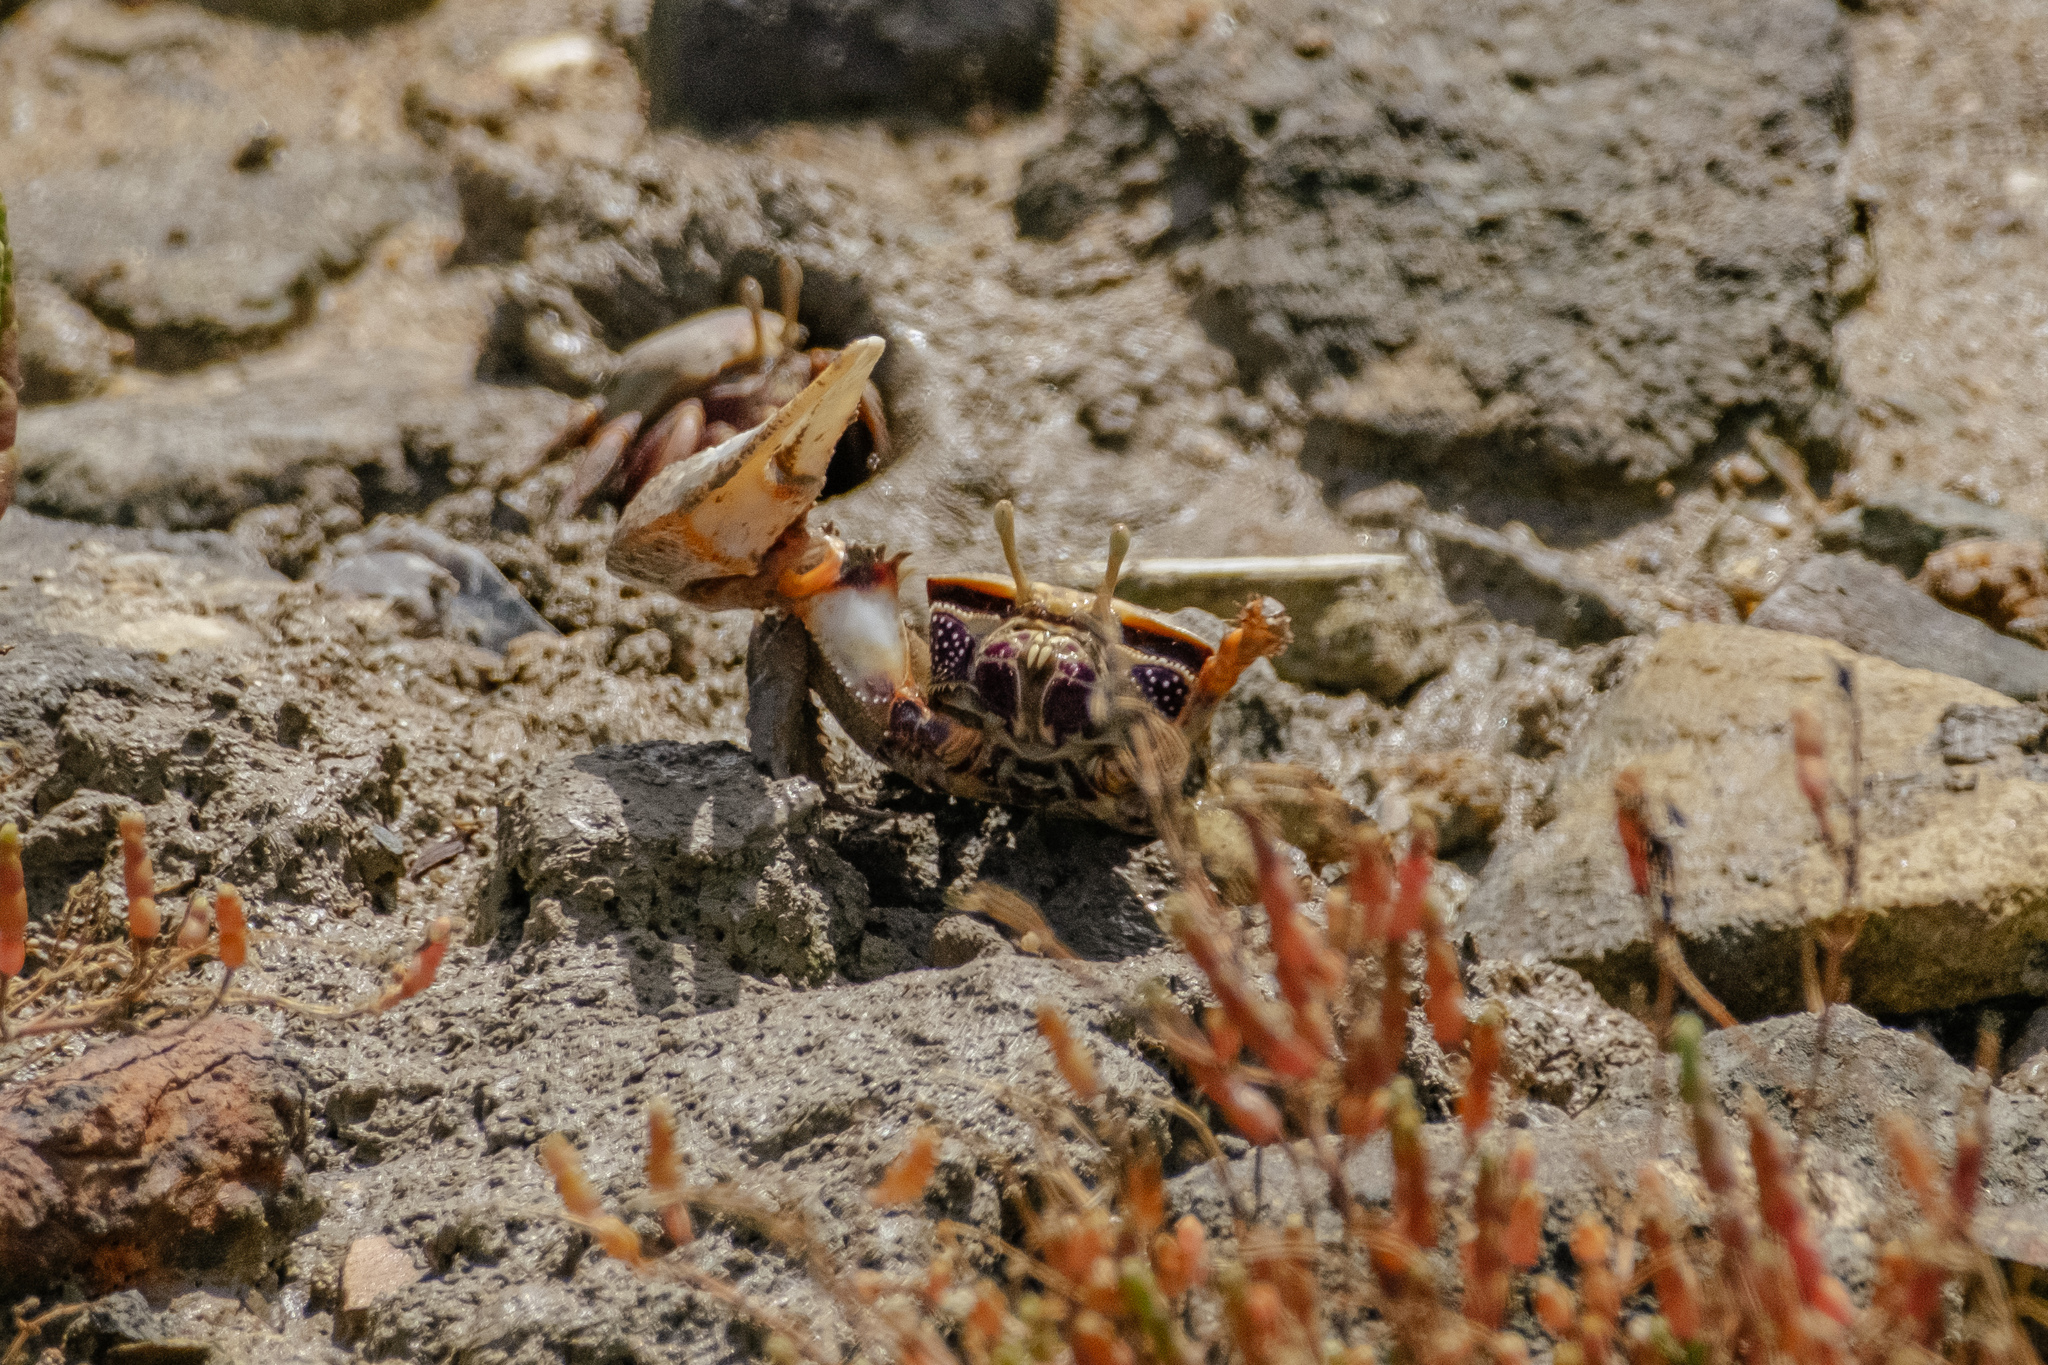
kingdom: Animalia
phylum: Arthropoda
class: Malacostraca
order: Decapoda
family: Ocypodidae
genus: Afruca
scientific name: Afruca tangeri
